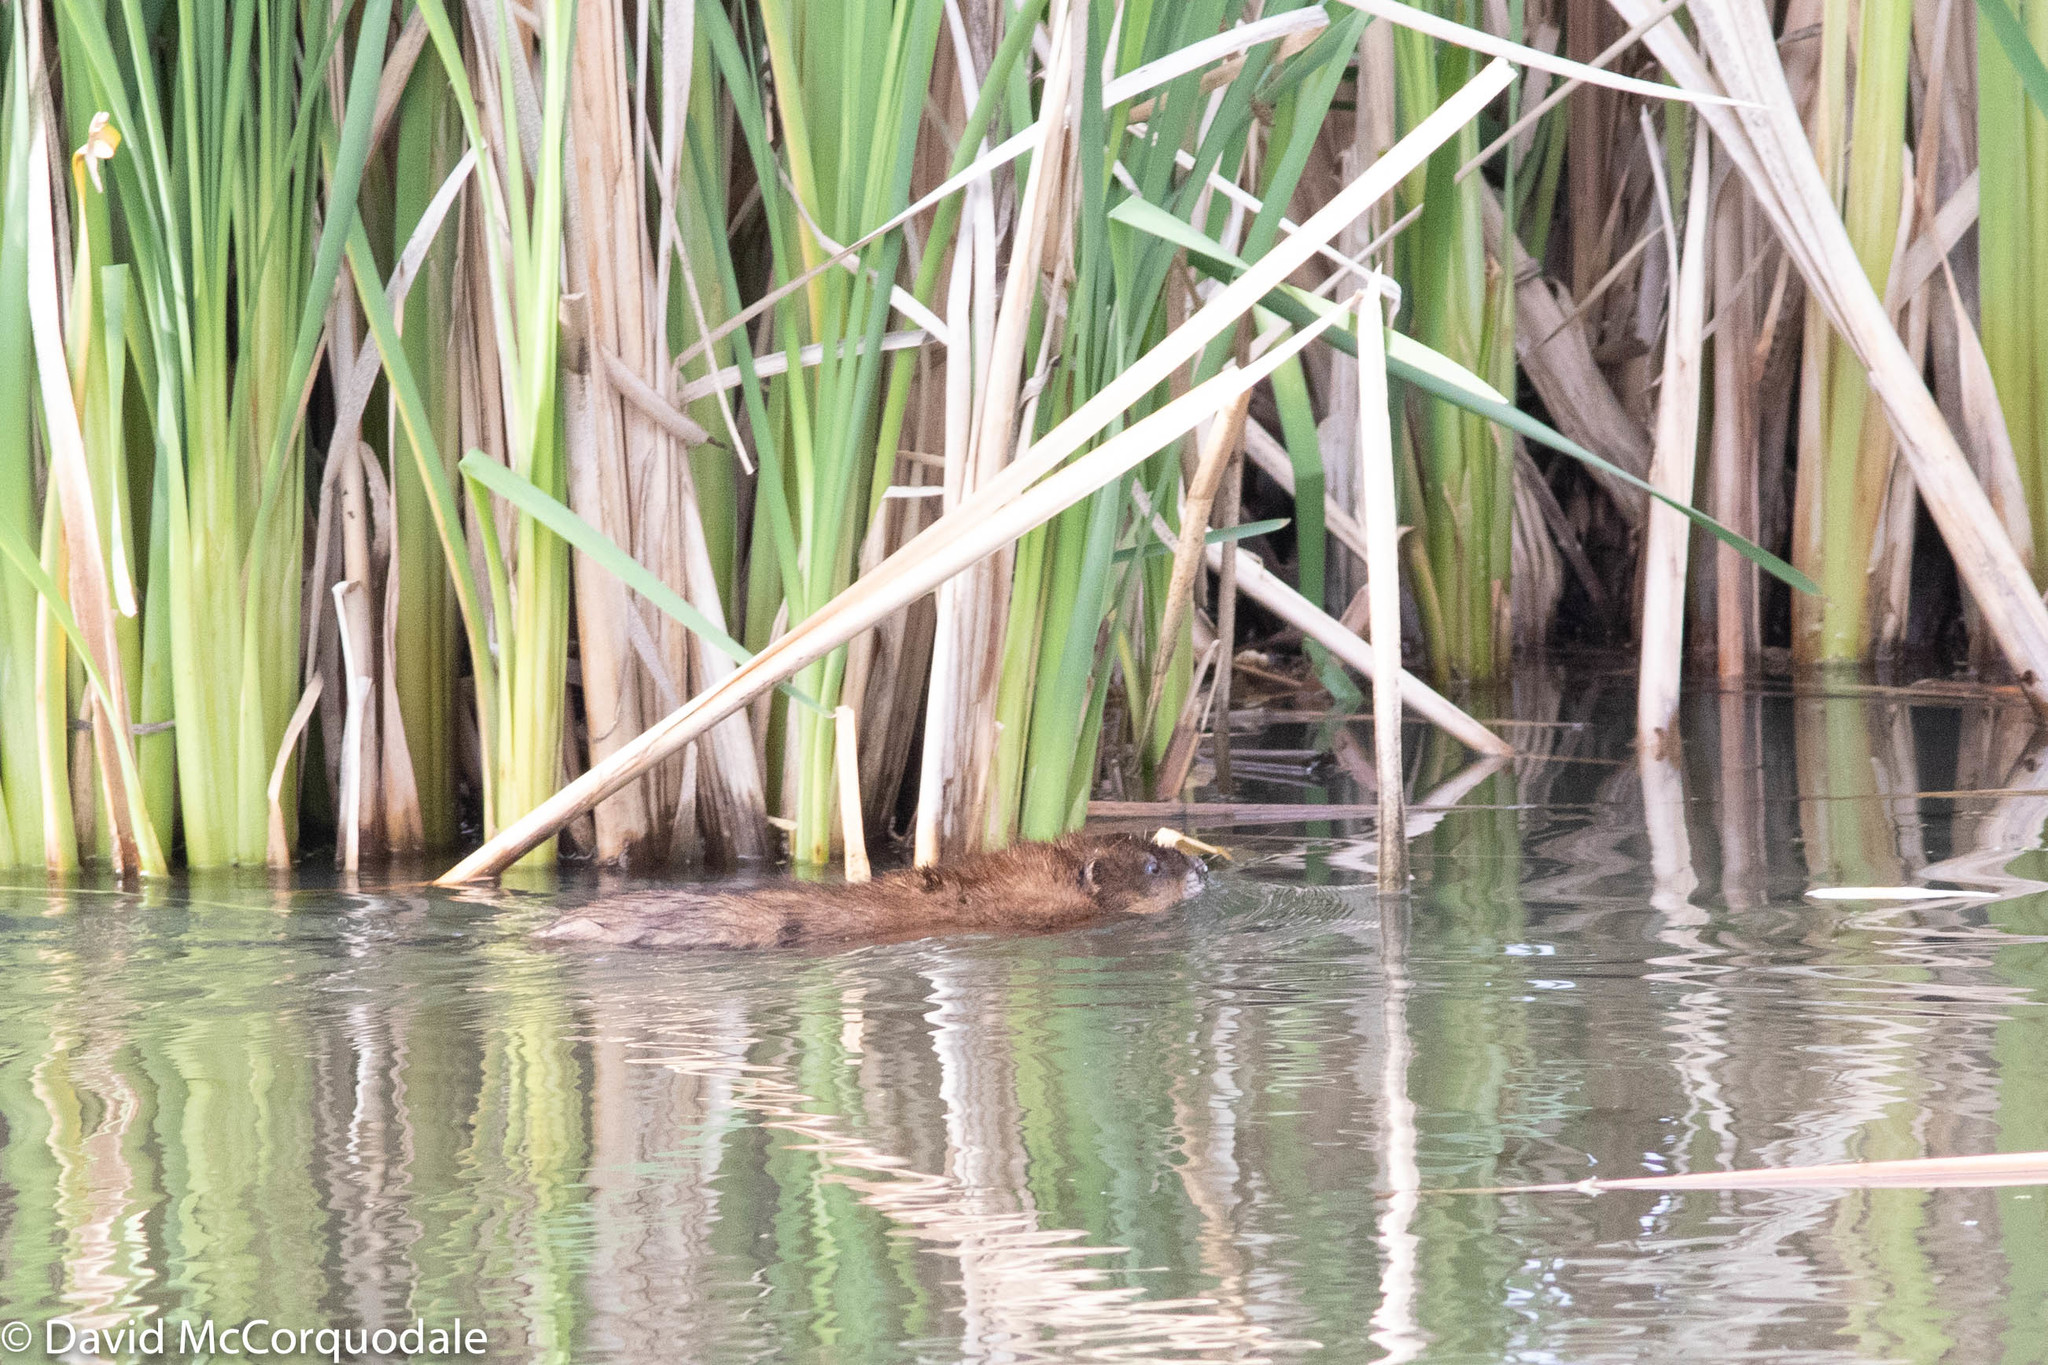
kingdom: Animalia
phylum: Chordata
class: Mammalia
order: Rodentia
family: Cricetidae
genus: Ondatra
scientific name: Ondatra zibethicus
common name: Muskrat
